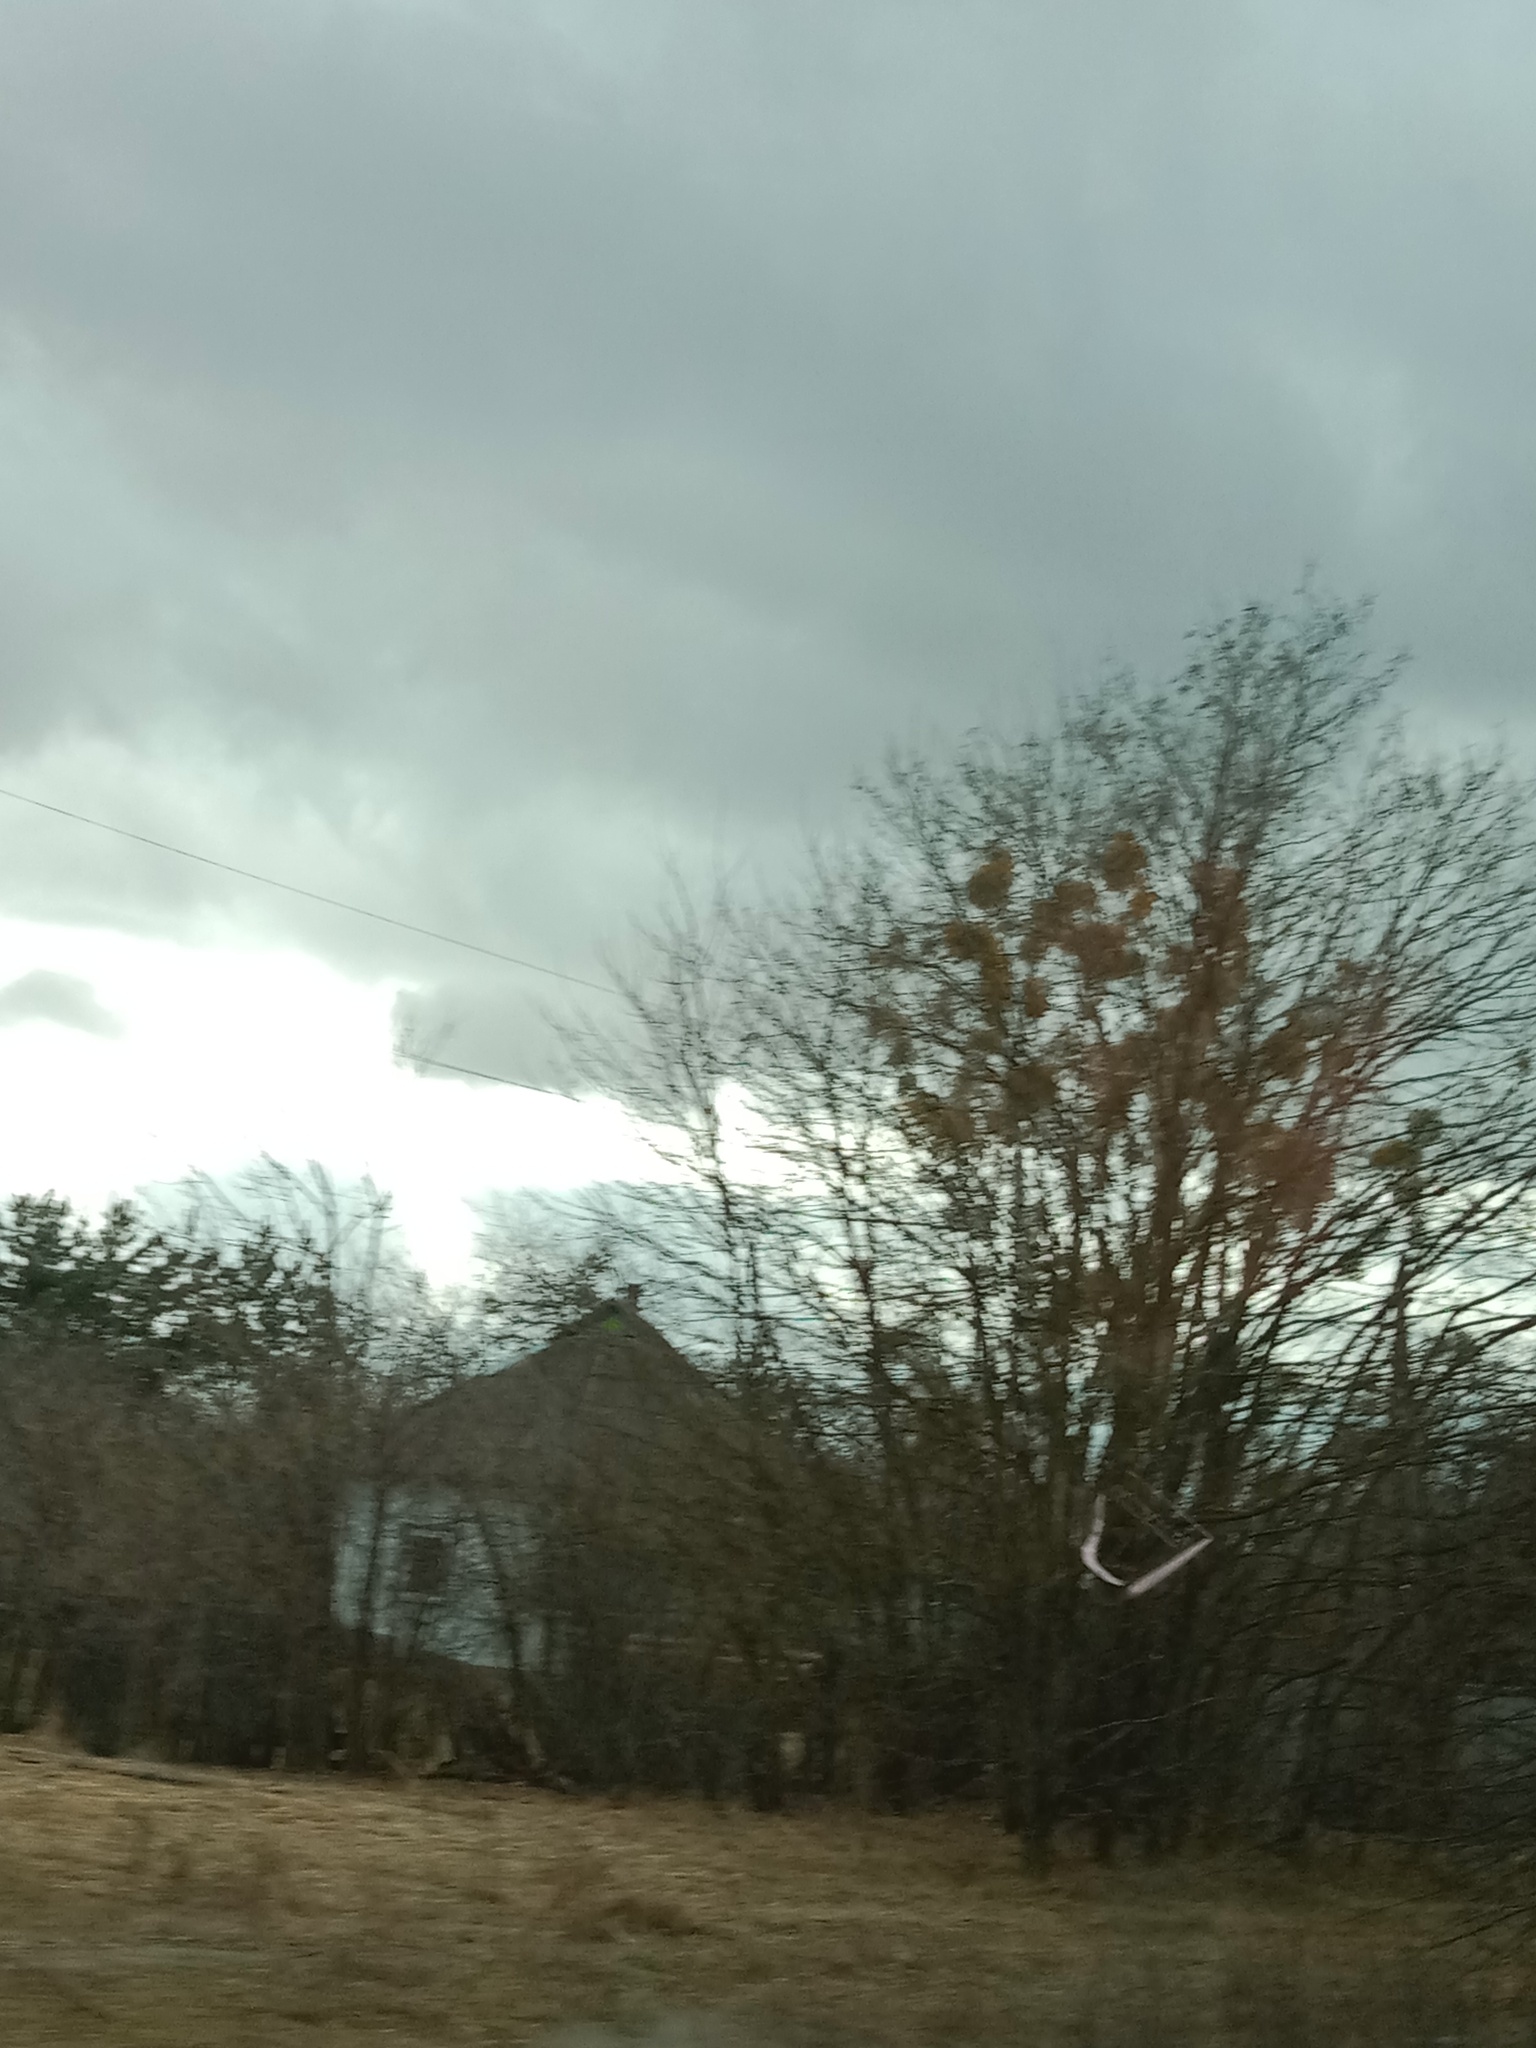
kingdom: Plantae
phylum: Tracheophyta
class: Magnoliopsida
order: Santalales
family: Viscaceae
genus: Viscum
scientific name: Viscum album
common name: Mistletoe
